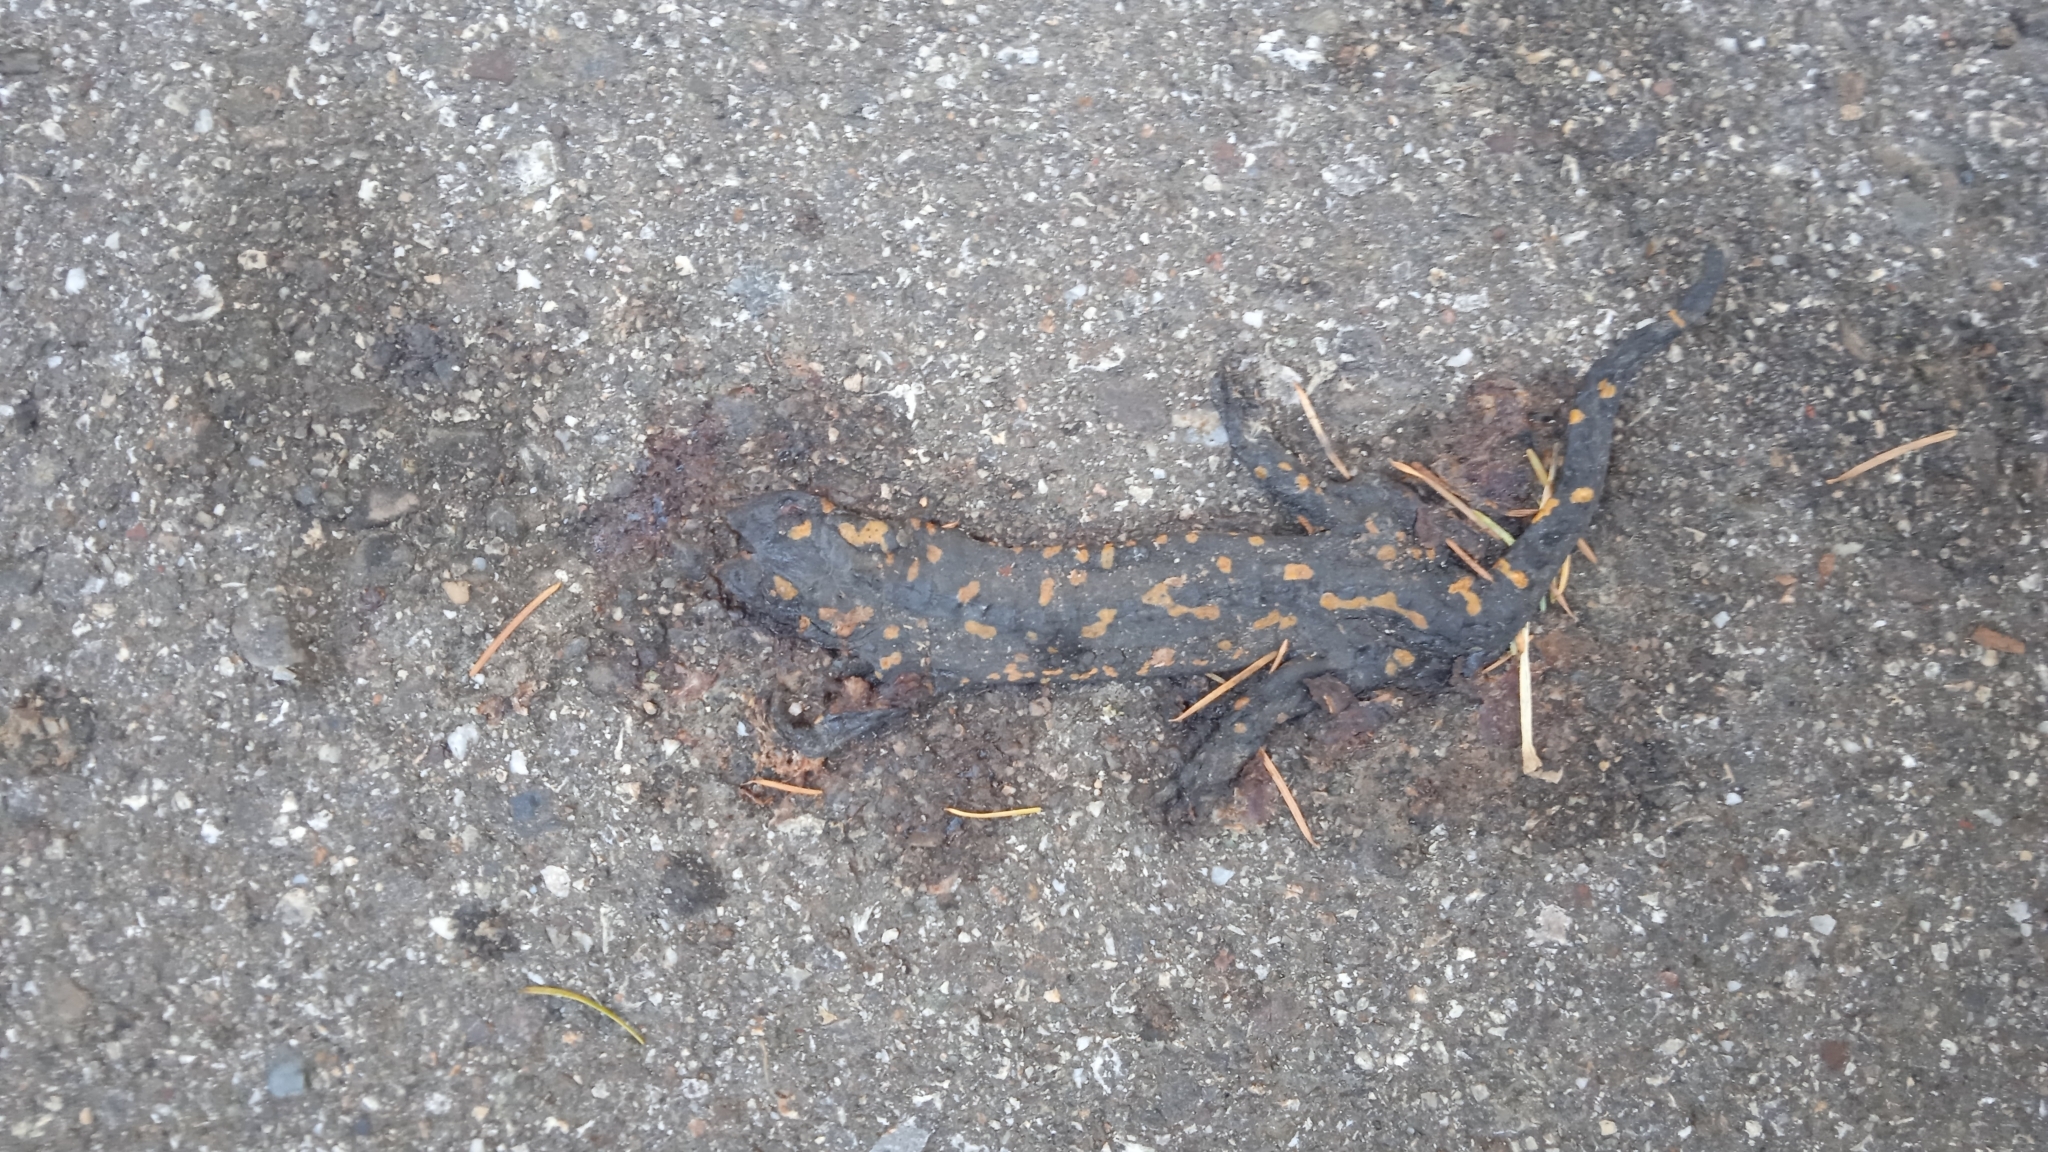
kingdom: Animalia
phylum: Chordata
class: Amphibia
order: Caudata
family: Salamandridae
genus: Salamandra
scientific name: Salamandra salamandra
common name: Fire salamander
